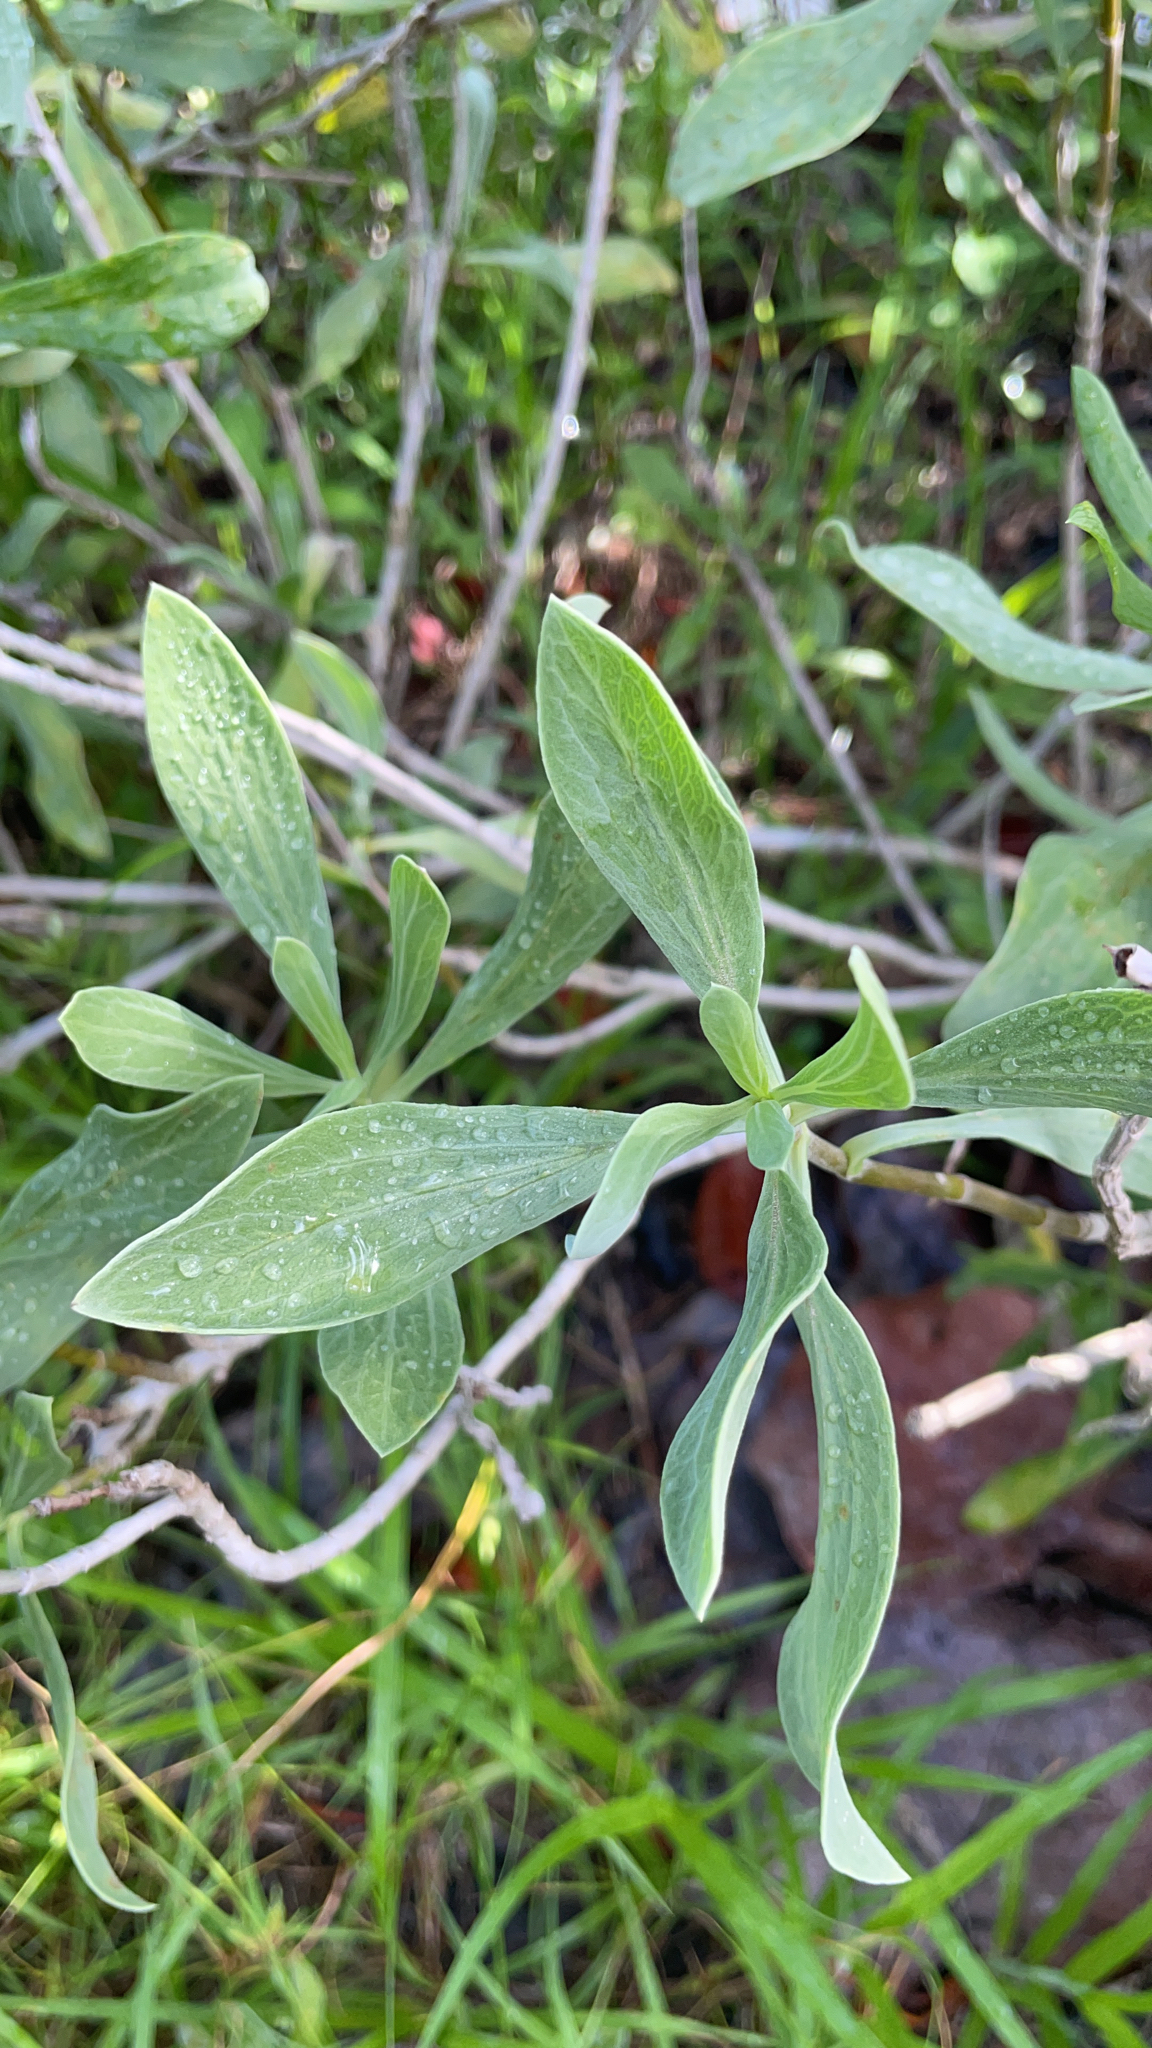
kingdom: Plantae
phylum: Tracheophyta
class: Magnoliopsida
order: Asterales
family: Asteraceae
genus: Borrichia
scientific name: Borrichia frutescens
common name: Sea oxeye
